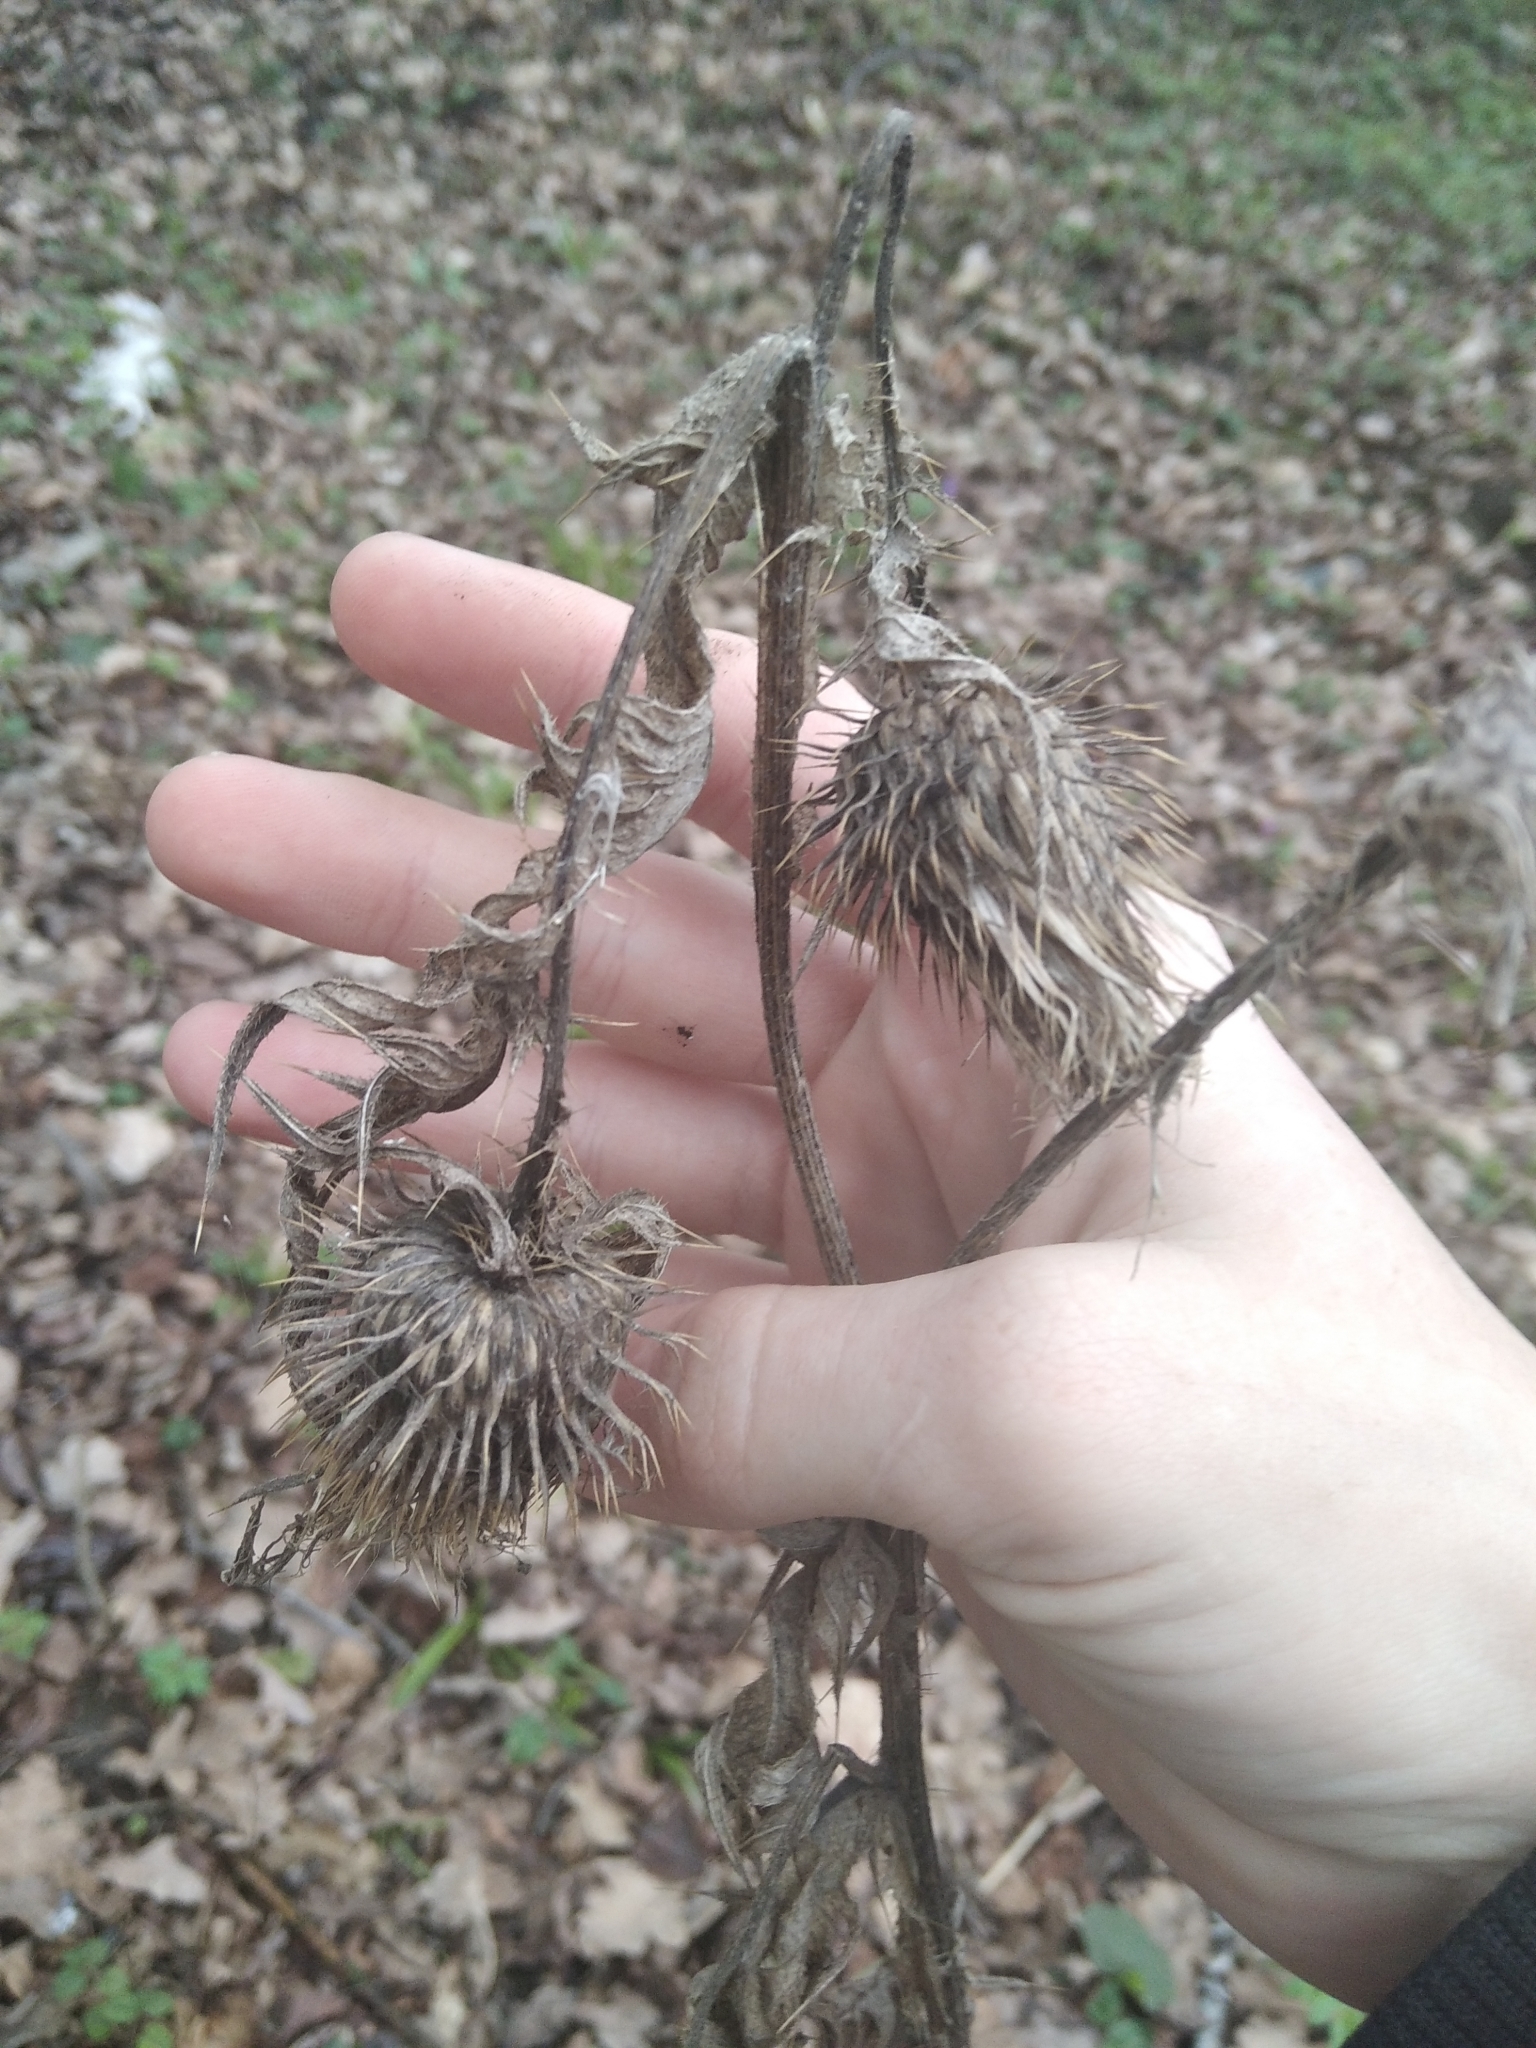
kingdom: Plantae
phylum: Tracheophyta
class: Magnoliopsida
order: Asterales
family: Asteraceae
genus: Cirsium
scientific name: Cirsium vulgare
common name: Bull thistle
